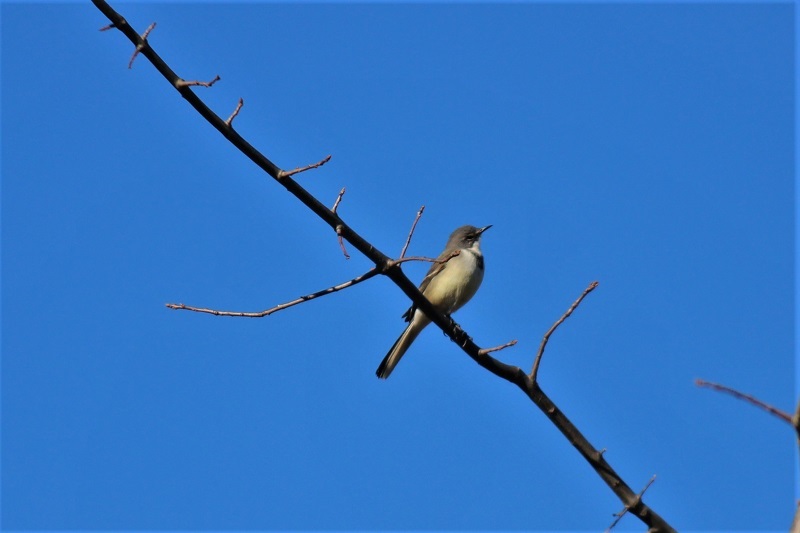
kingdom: Animalia
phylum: Chordata
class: Aves
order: Passeriformes
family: Motacillidae
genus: Motacilla
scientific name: Motacilla capensis
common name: Cape wagtail
